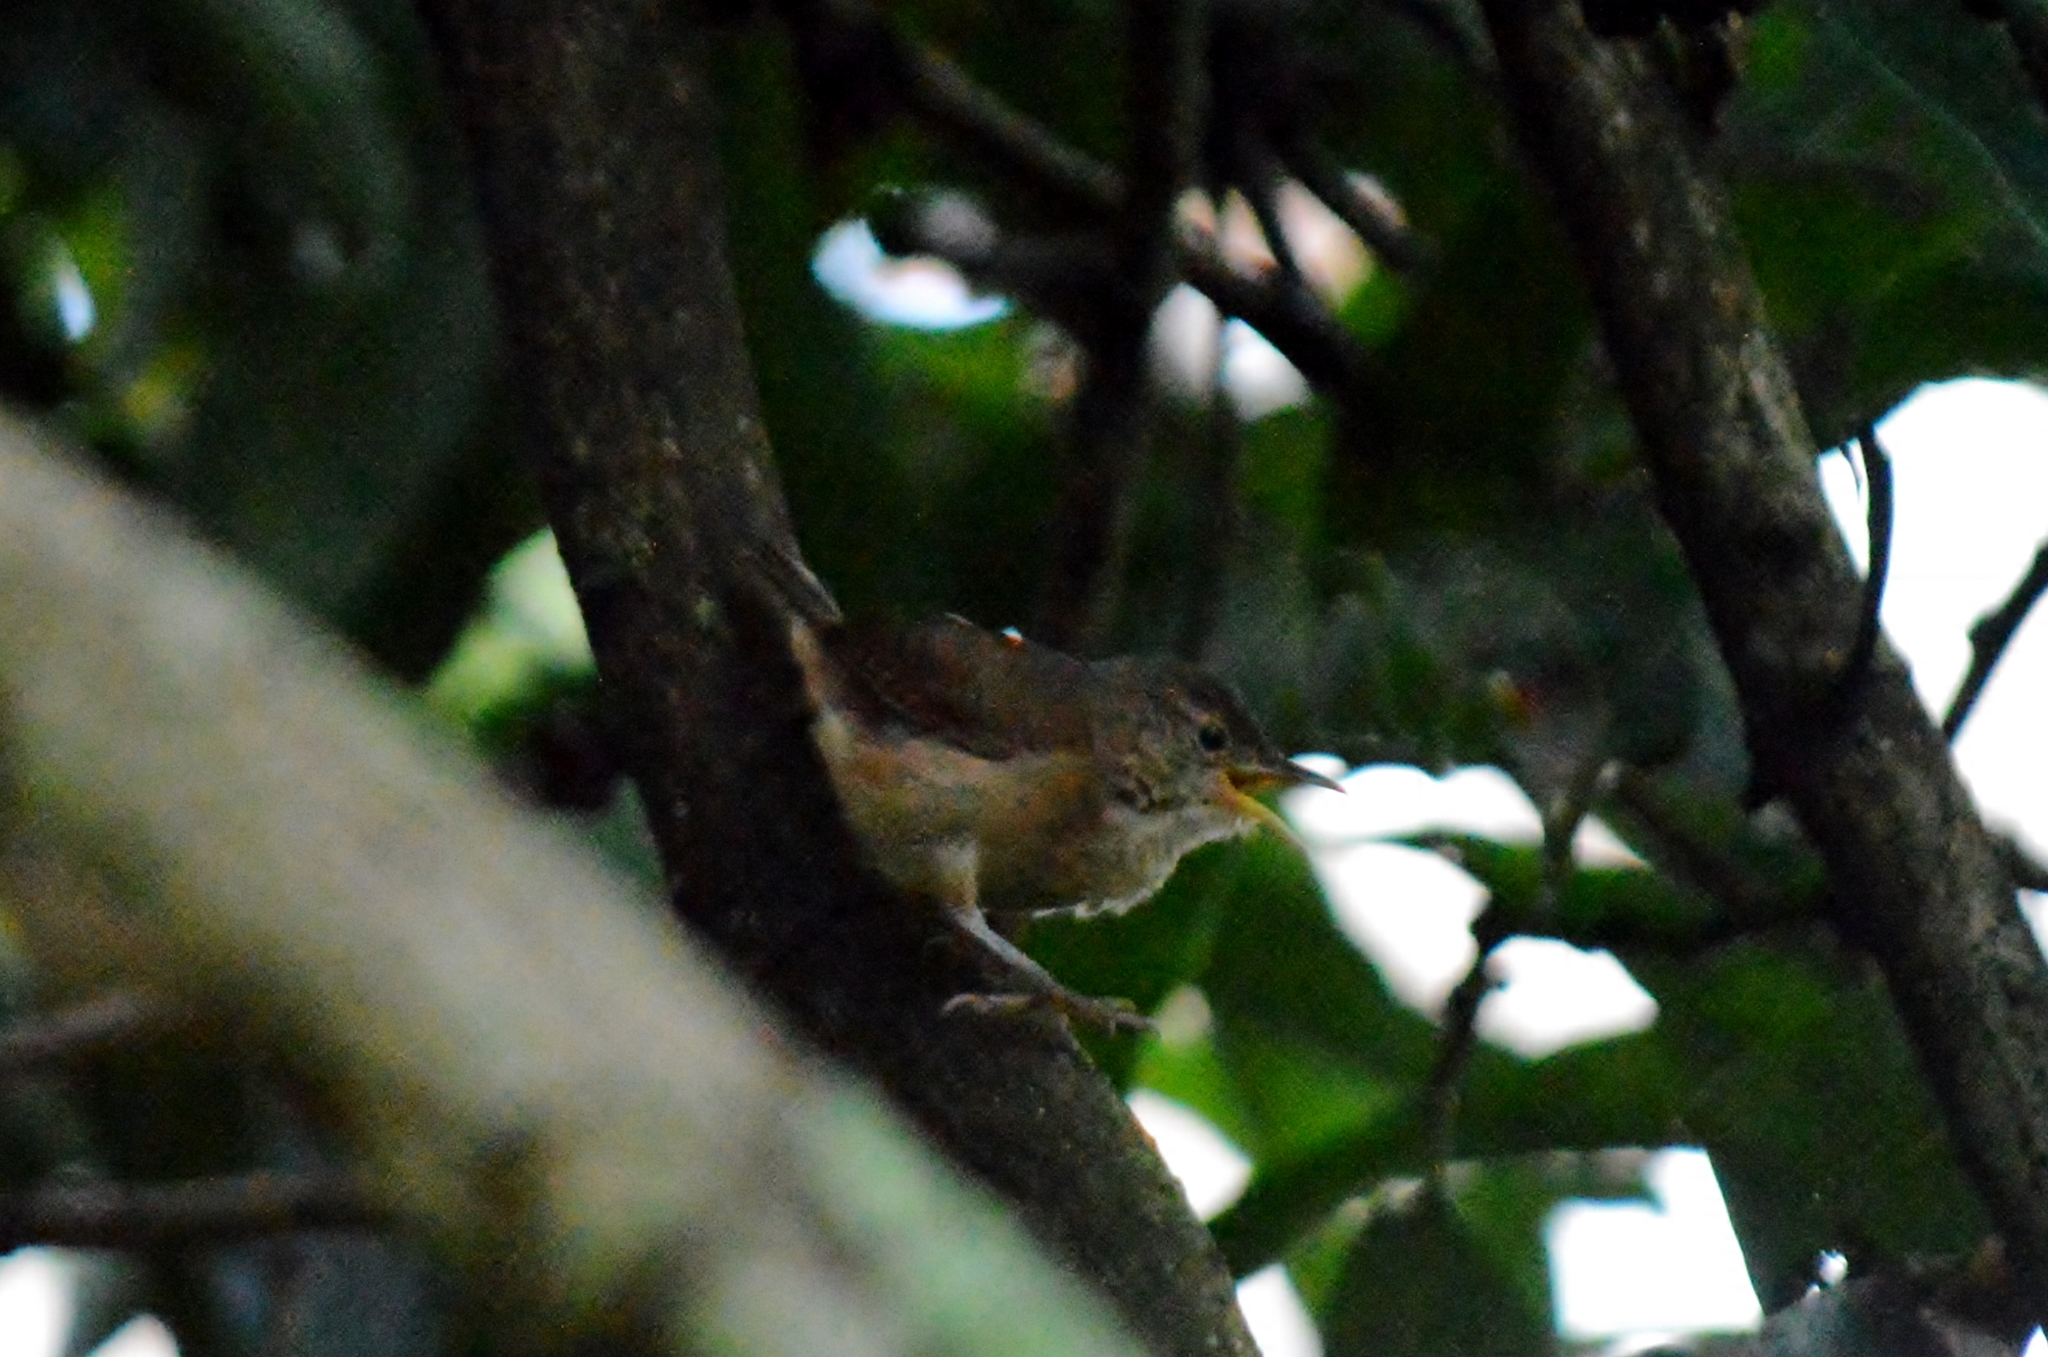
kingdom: Animalia
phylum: Chordata
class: Aves
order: Passeriformes
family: Troglodytidae
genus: Troglodytes
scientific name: Troglodytes aedon
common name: House wren
